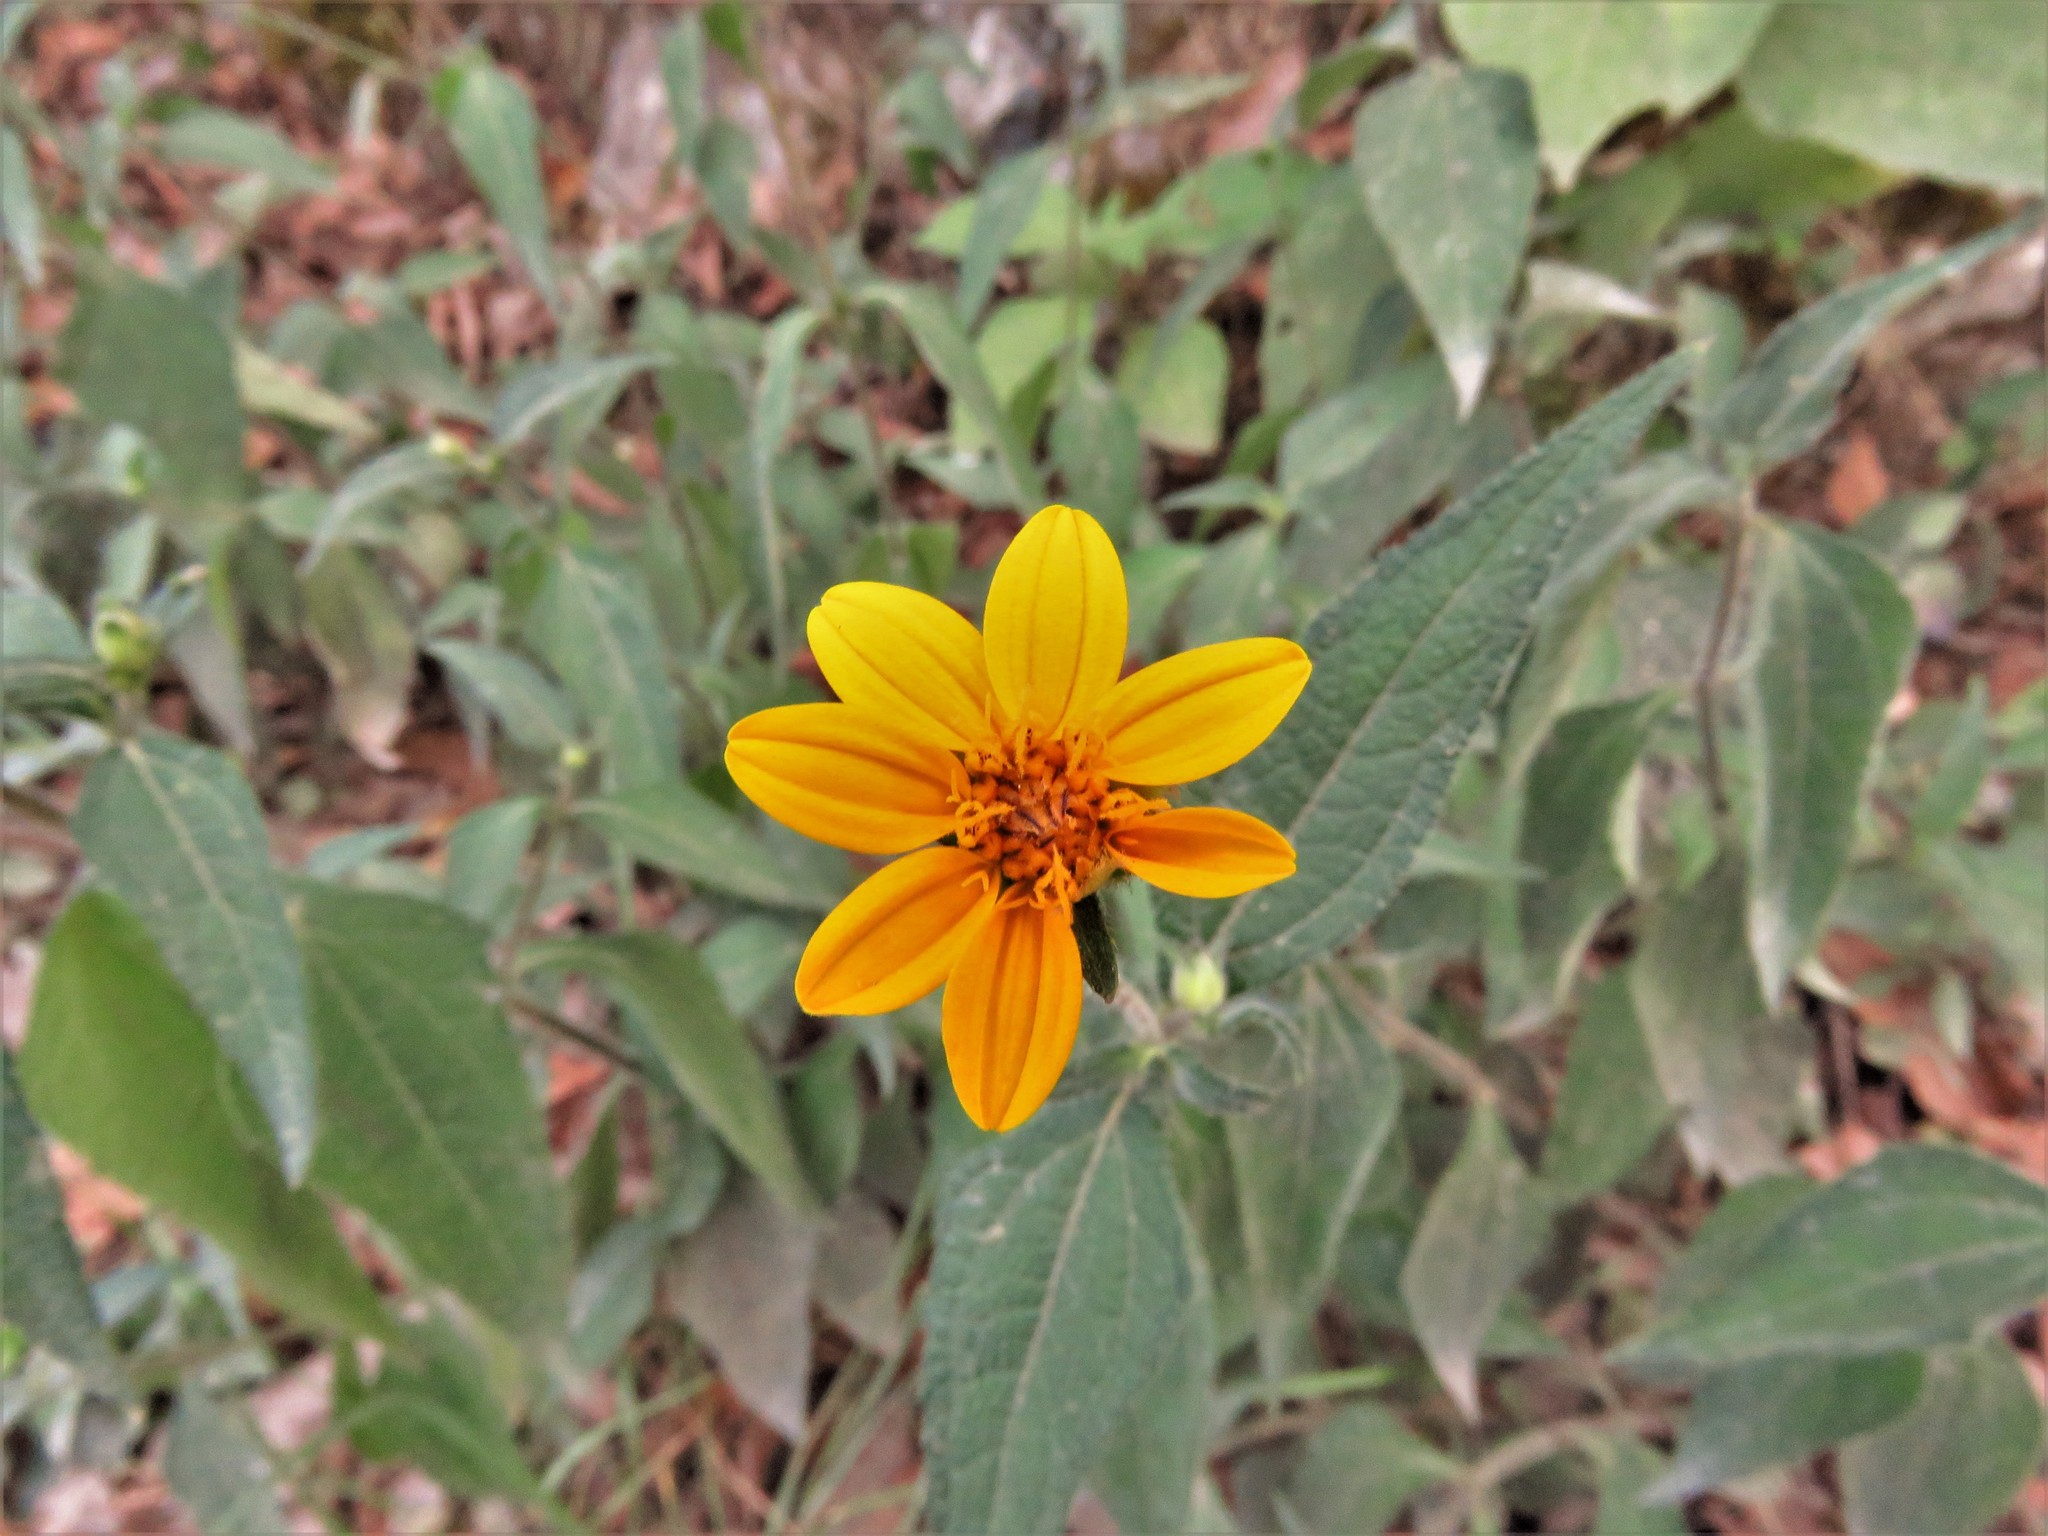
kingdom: Plantae
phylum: Tracheophyta
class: Magnoliopsida
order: Asterales
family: Asteraceae
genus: Wedelia
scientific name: Wedelia acapulcensis
